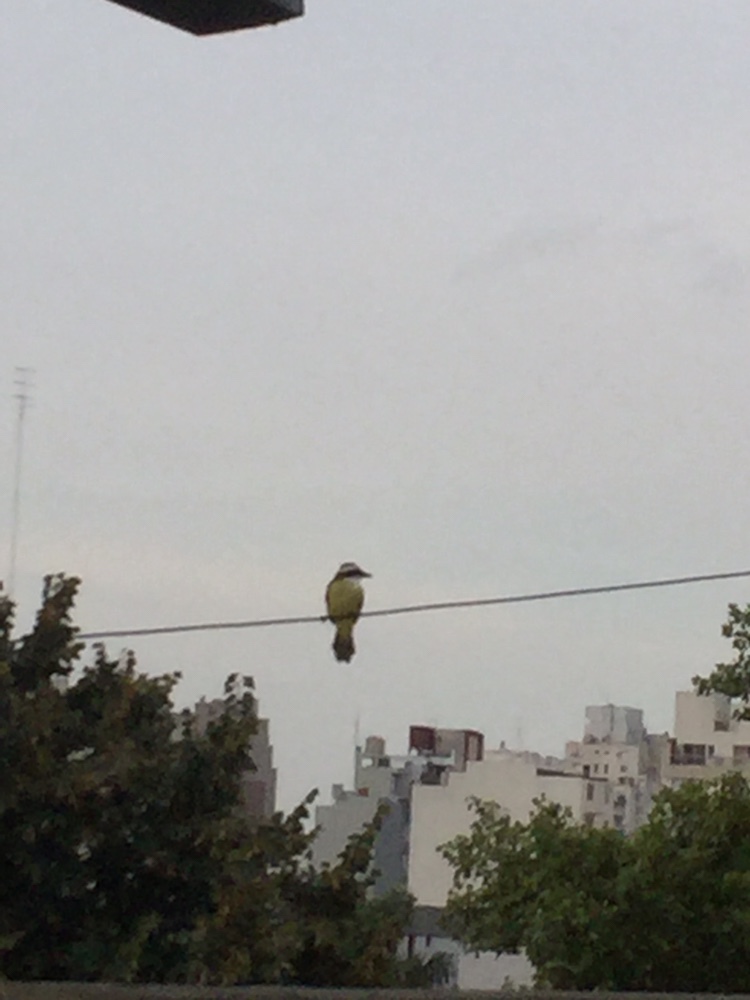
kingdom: Animalia
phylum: Chordata
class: Aves
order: Passeriformes
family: Tyrannidae
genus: Pitangus
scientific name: Pitangus sulphuratus
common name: Great kiskadee
